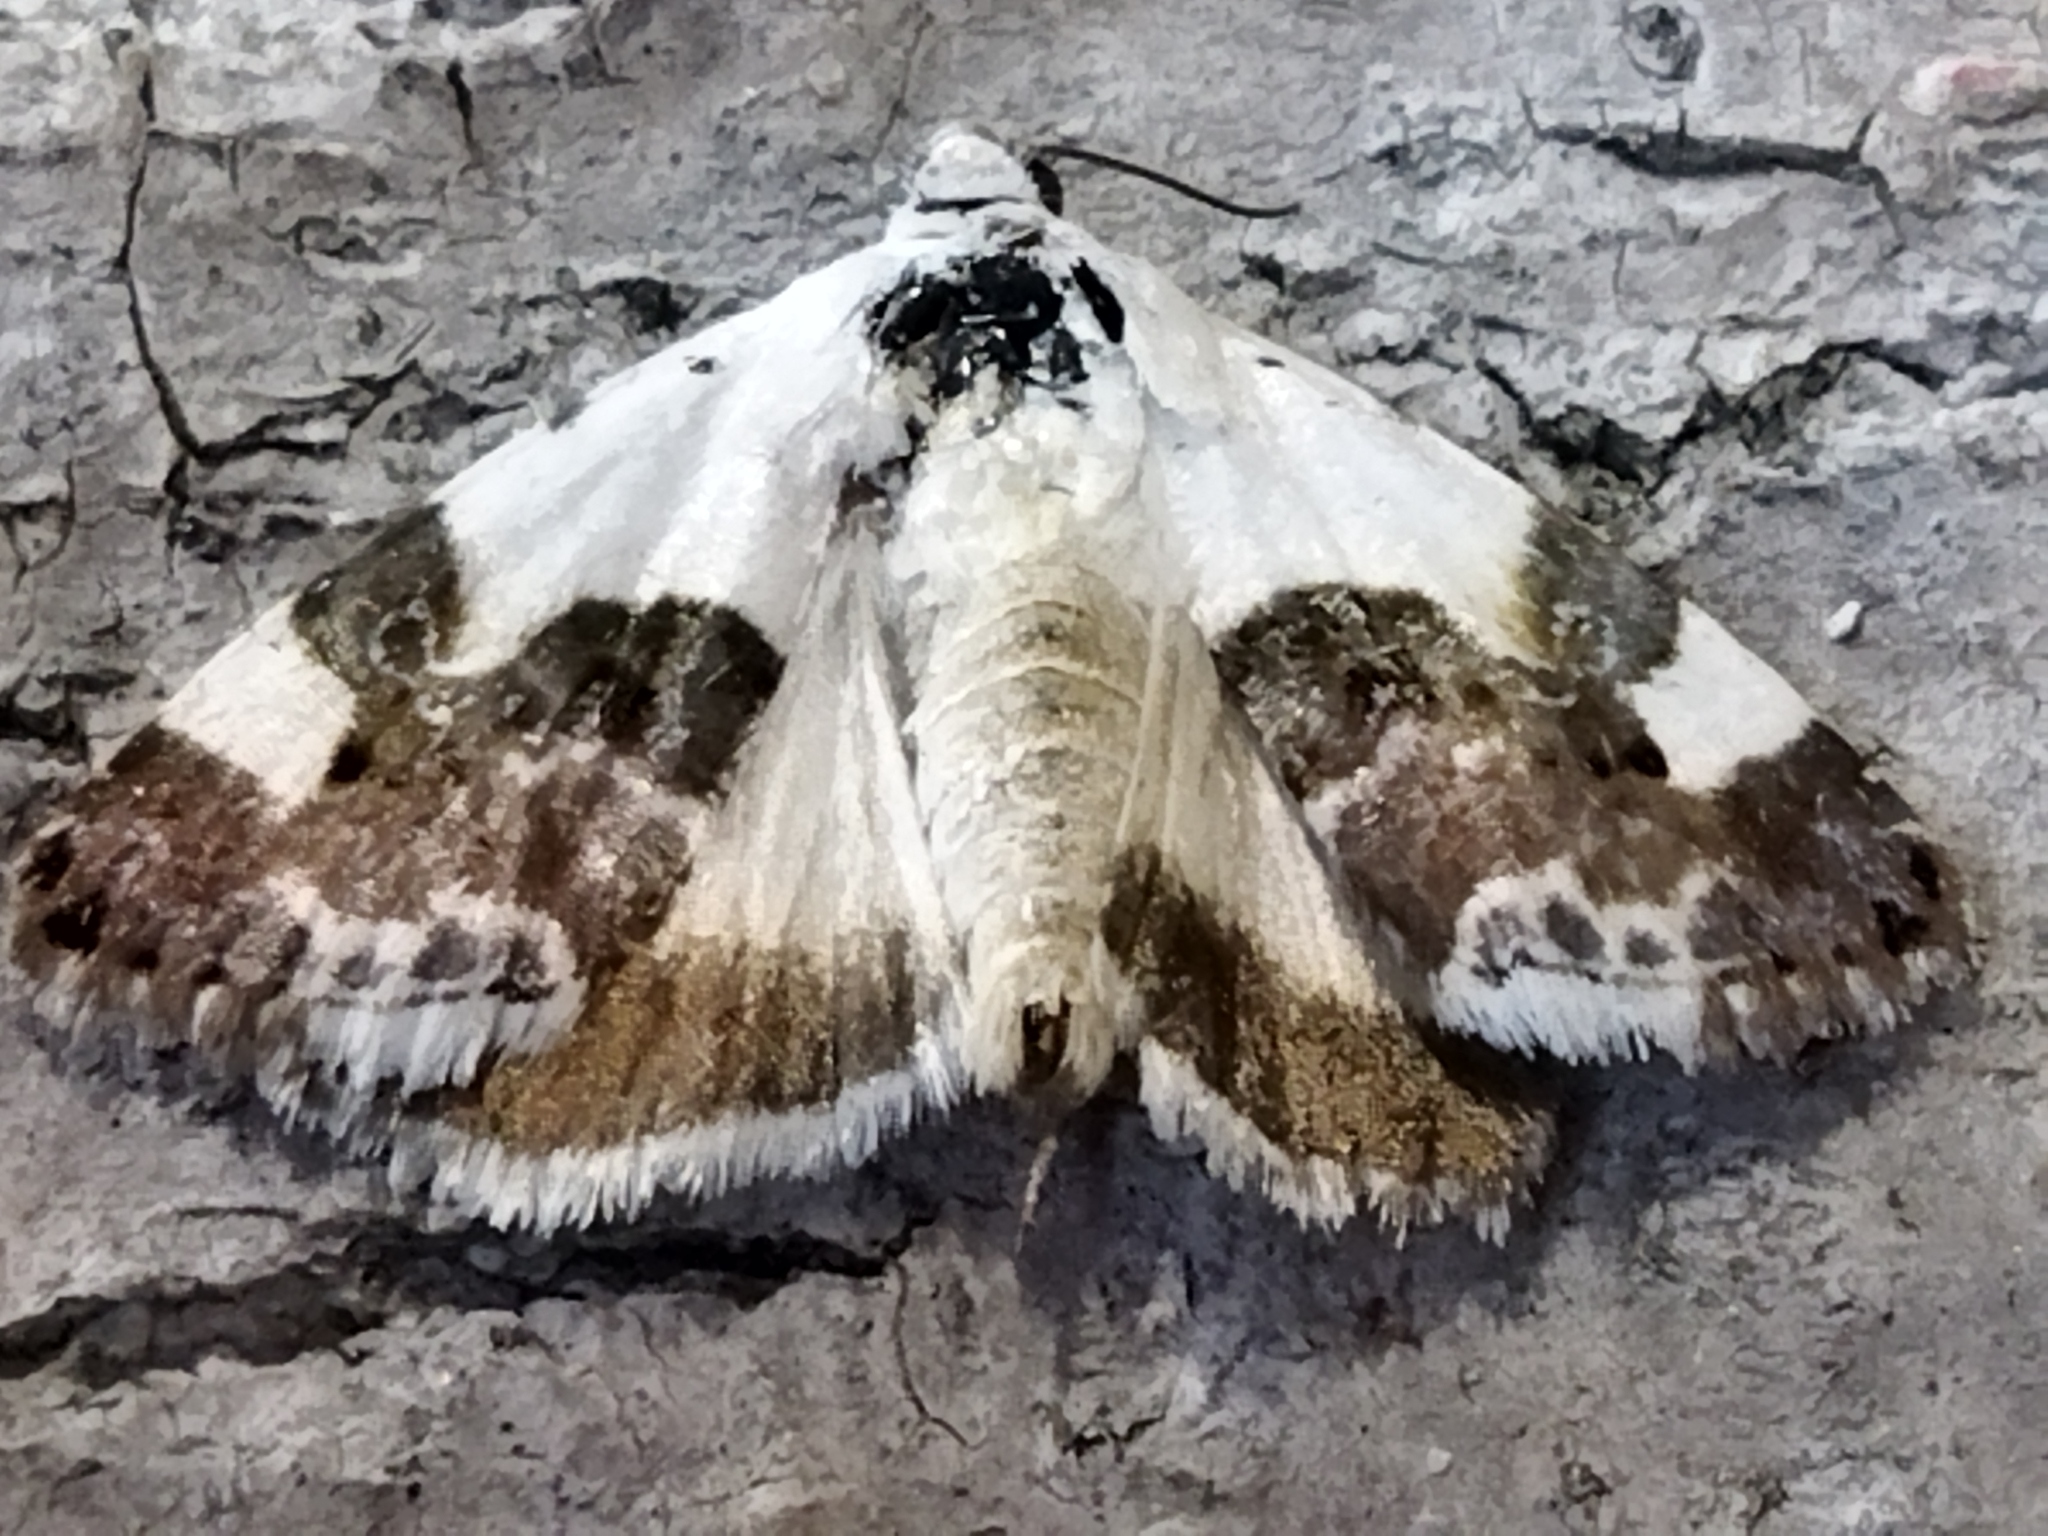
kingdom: Animalia
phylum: Arthropoda
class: Insecta
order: Lepidoptera
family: Noctuidae
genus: Acontia
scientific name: Acontia lucida
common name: Pale shoulder
